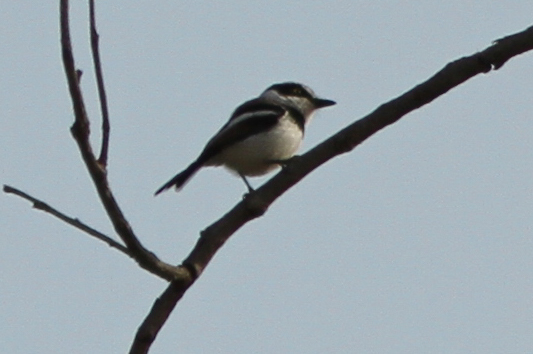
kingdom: Animalia
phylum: Chordata
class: Aves
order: Passeriformes
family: Platysteiridae
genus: Batis
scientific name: Batis senegalensis
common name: Senegal batis
